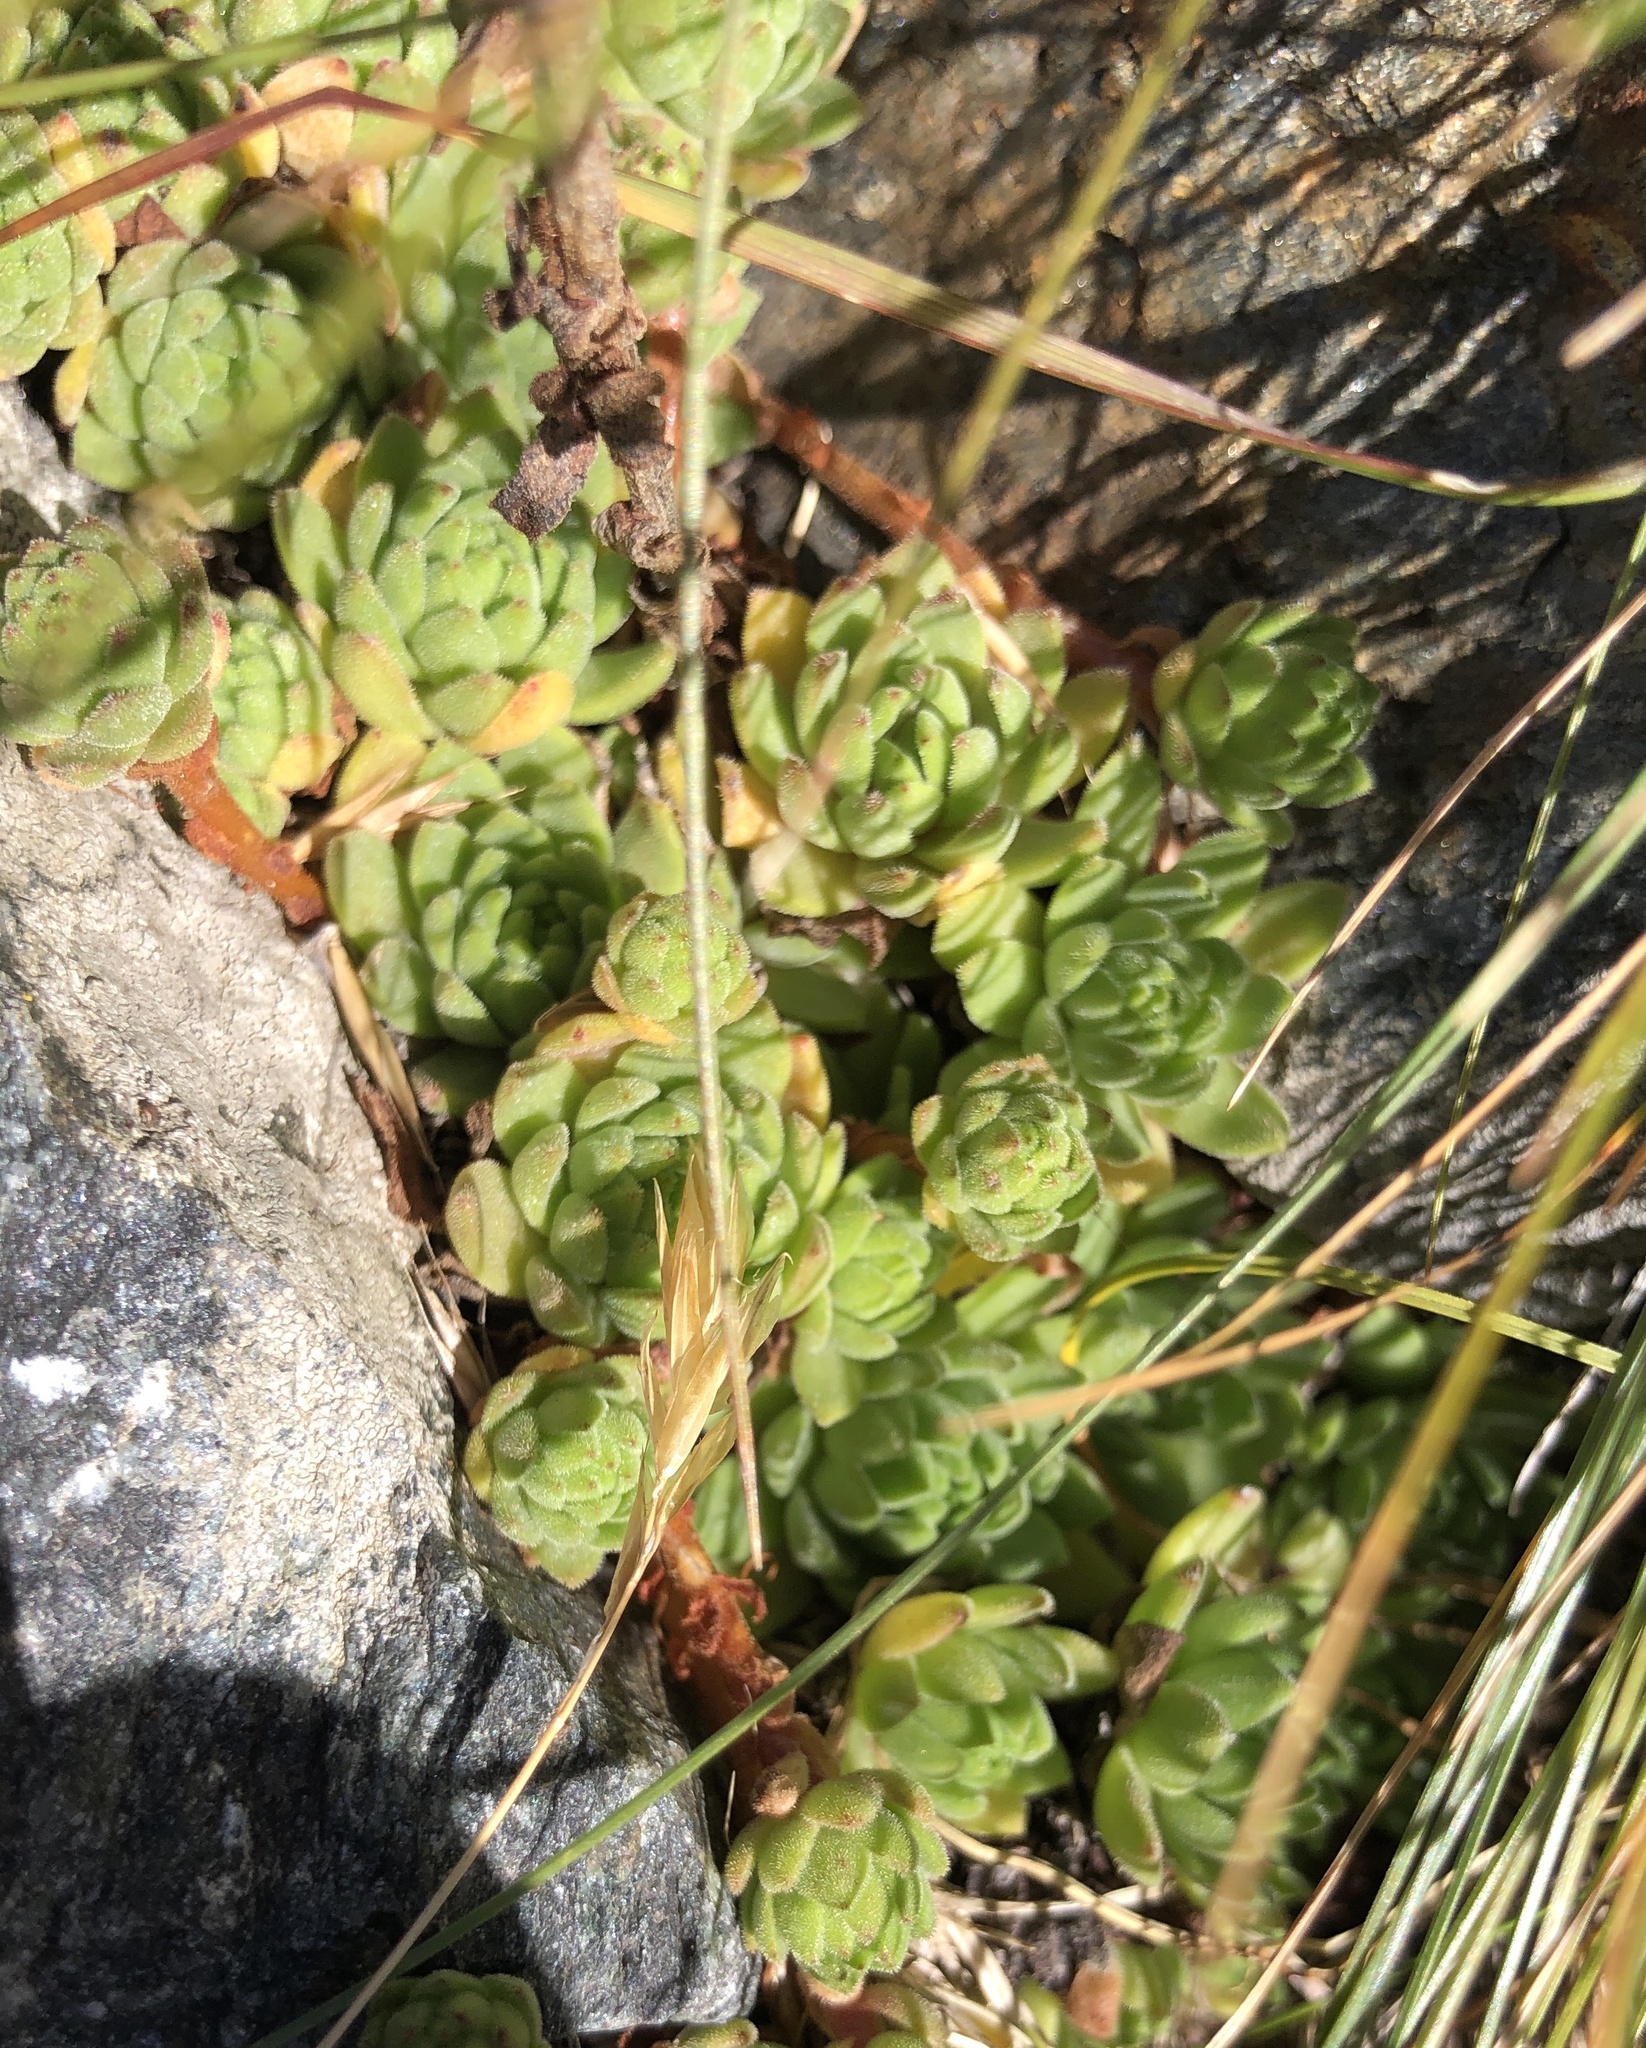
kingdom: Plantae
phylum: Tracheophyta
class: Magnoliopsida
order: Saxifragales
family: Crassulaceae
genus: Sempervivum
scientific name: Sempervivum montanum
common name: Mountain house-leek
